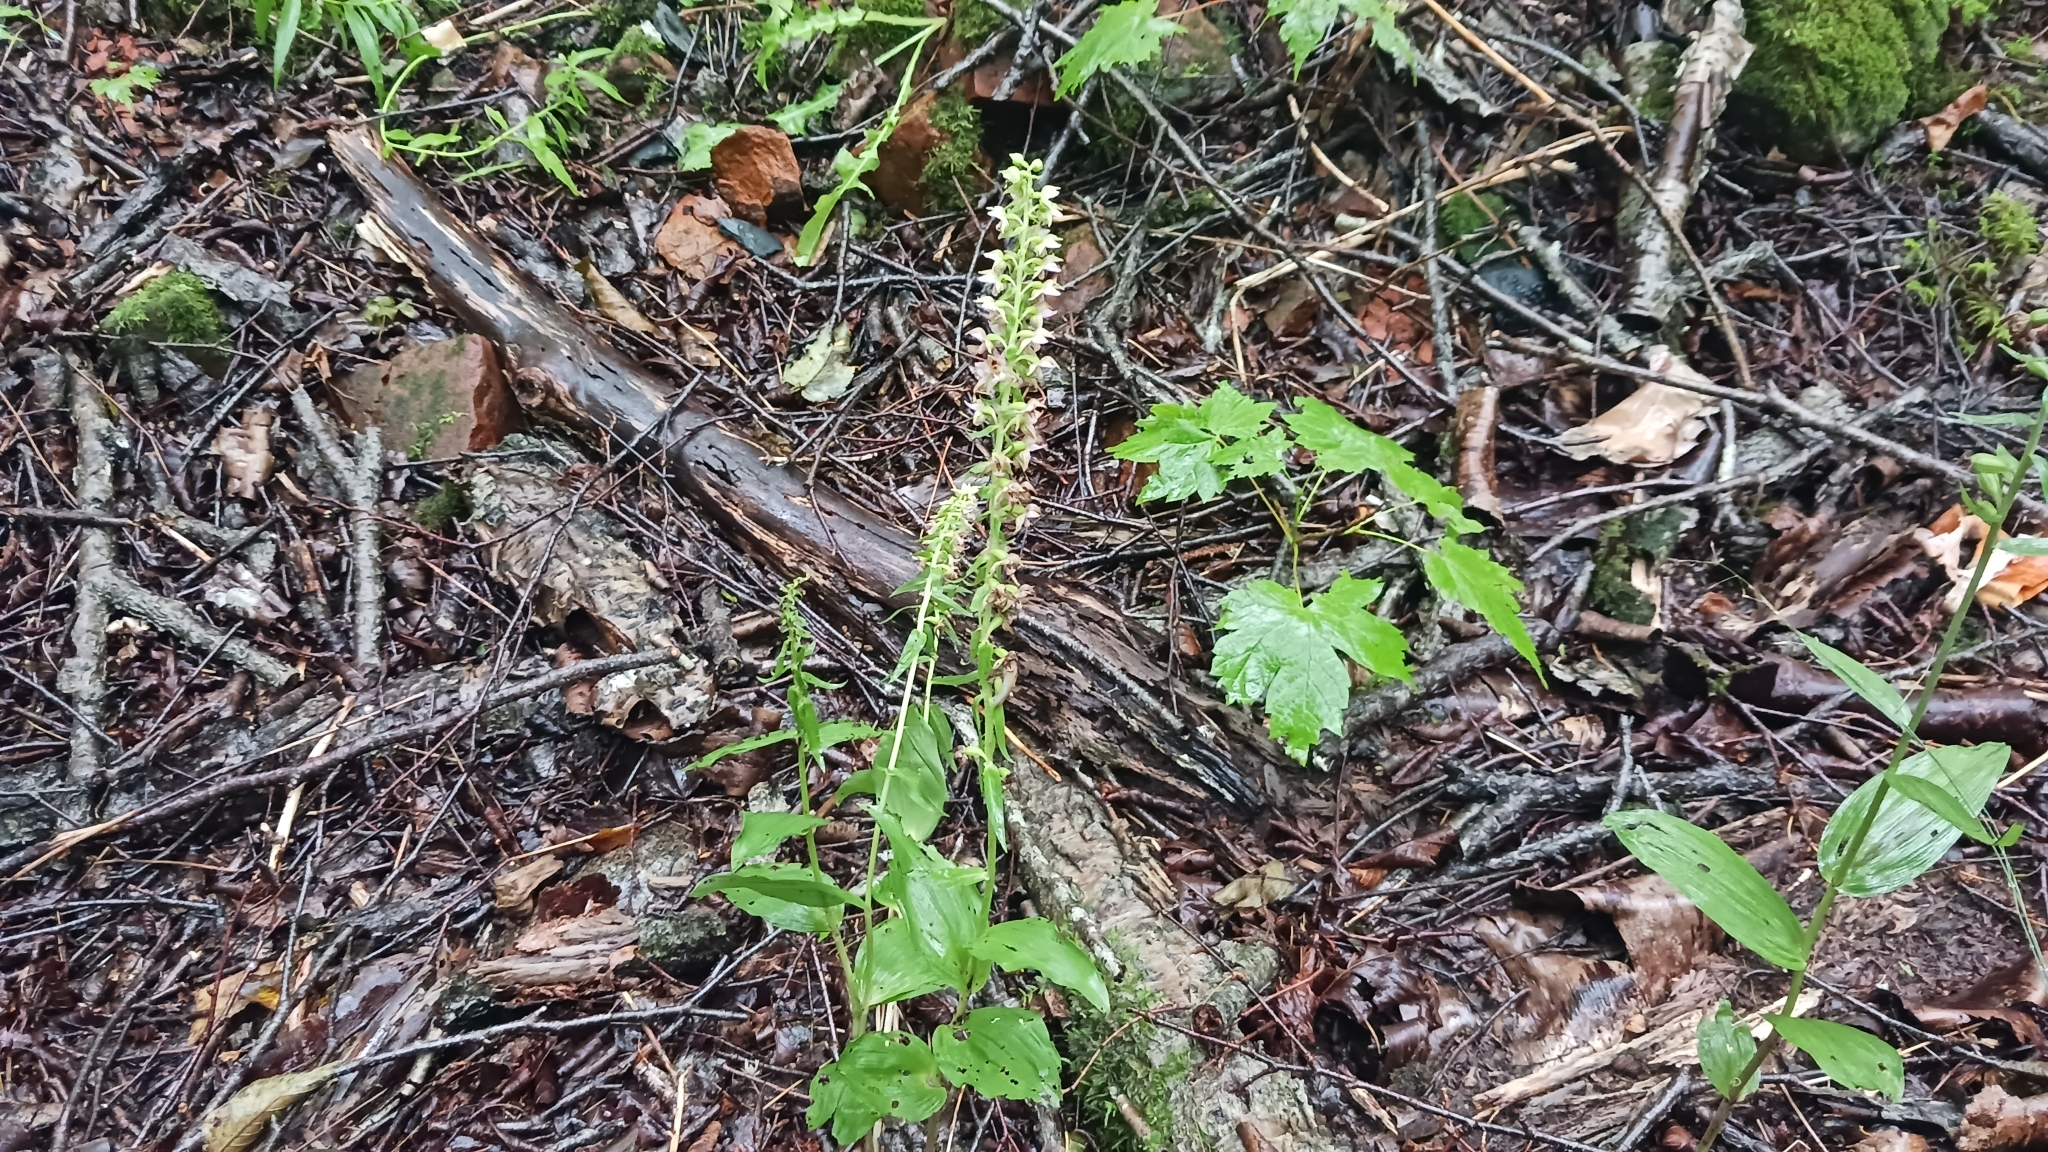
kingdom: Plantae
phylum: Tracheophyta
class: Liliopsida
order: Asparagales
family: Orchidaceae
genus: Epipactis
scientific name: Epipactis helleborine
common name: Broad-leaved helleborine
